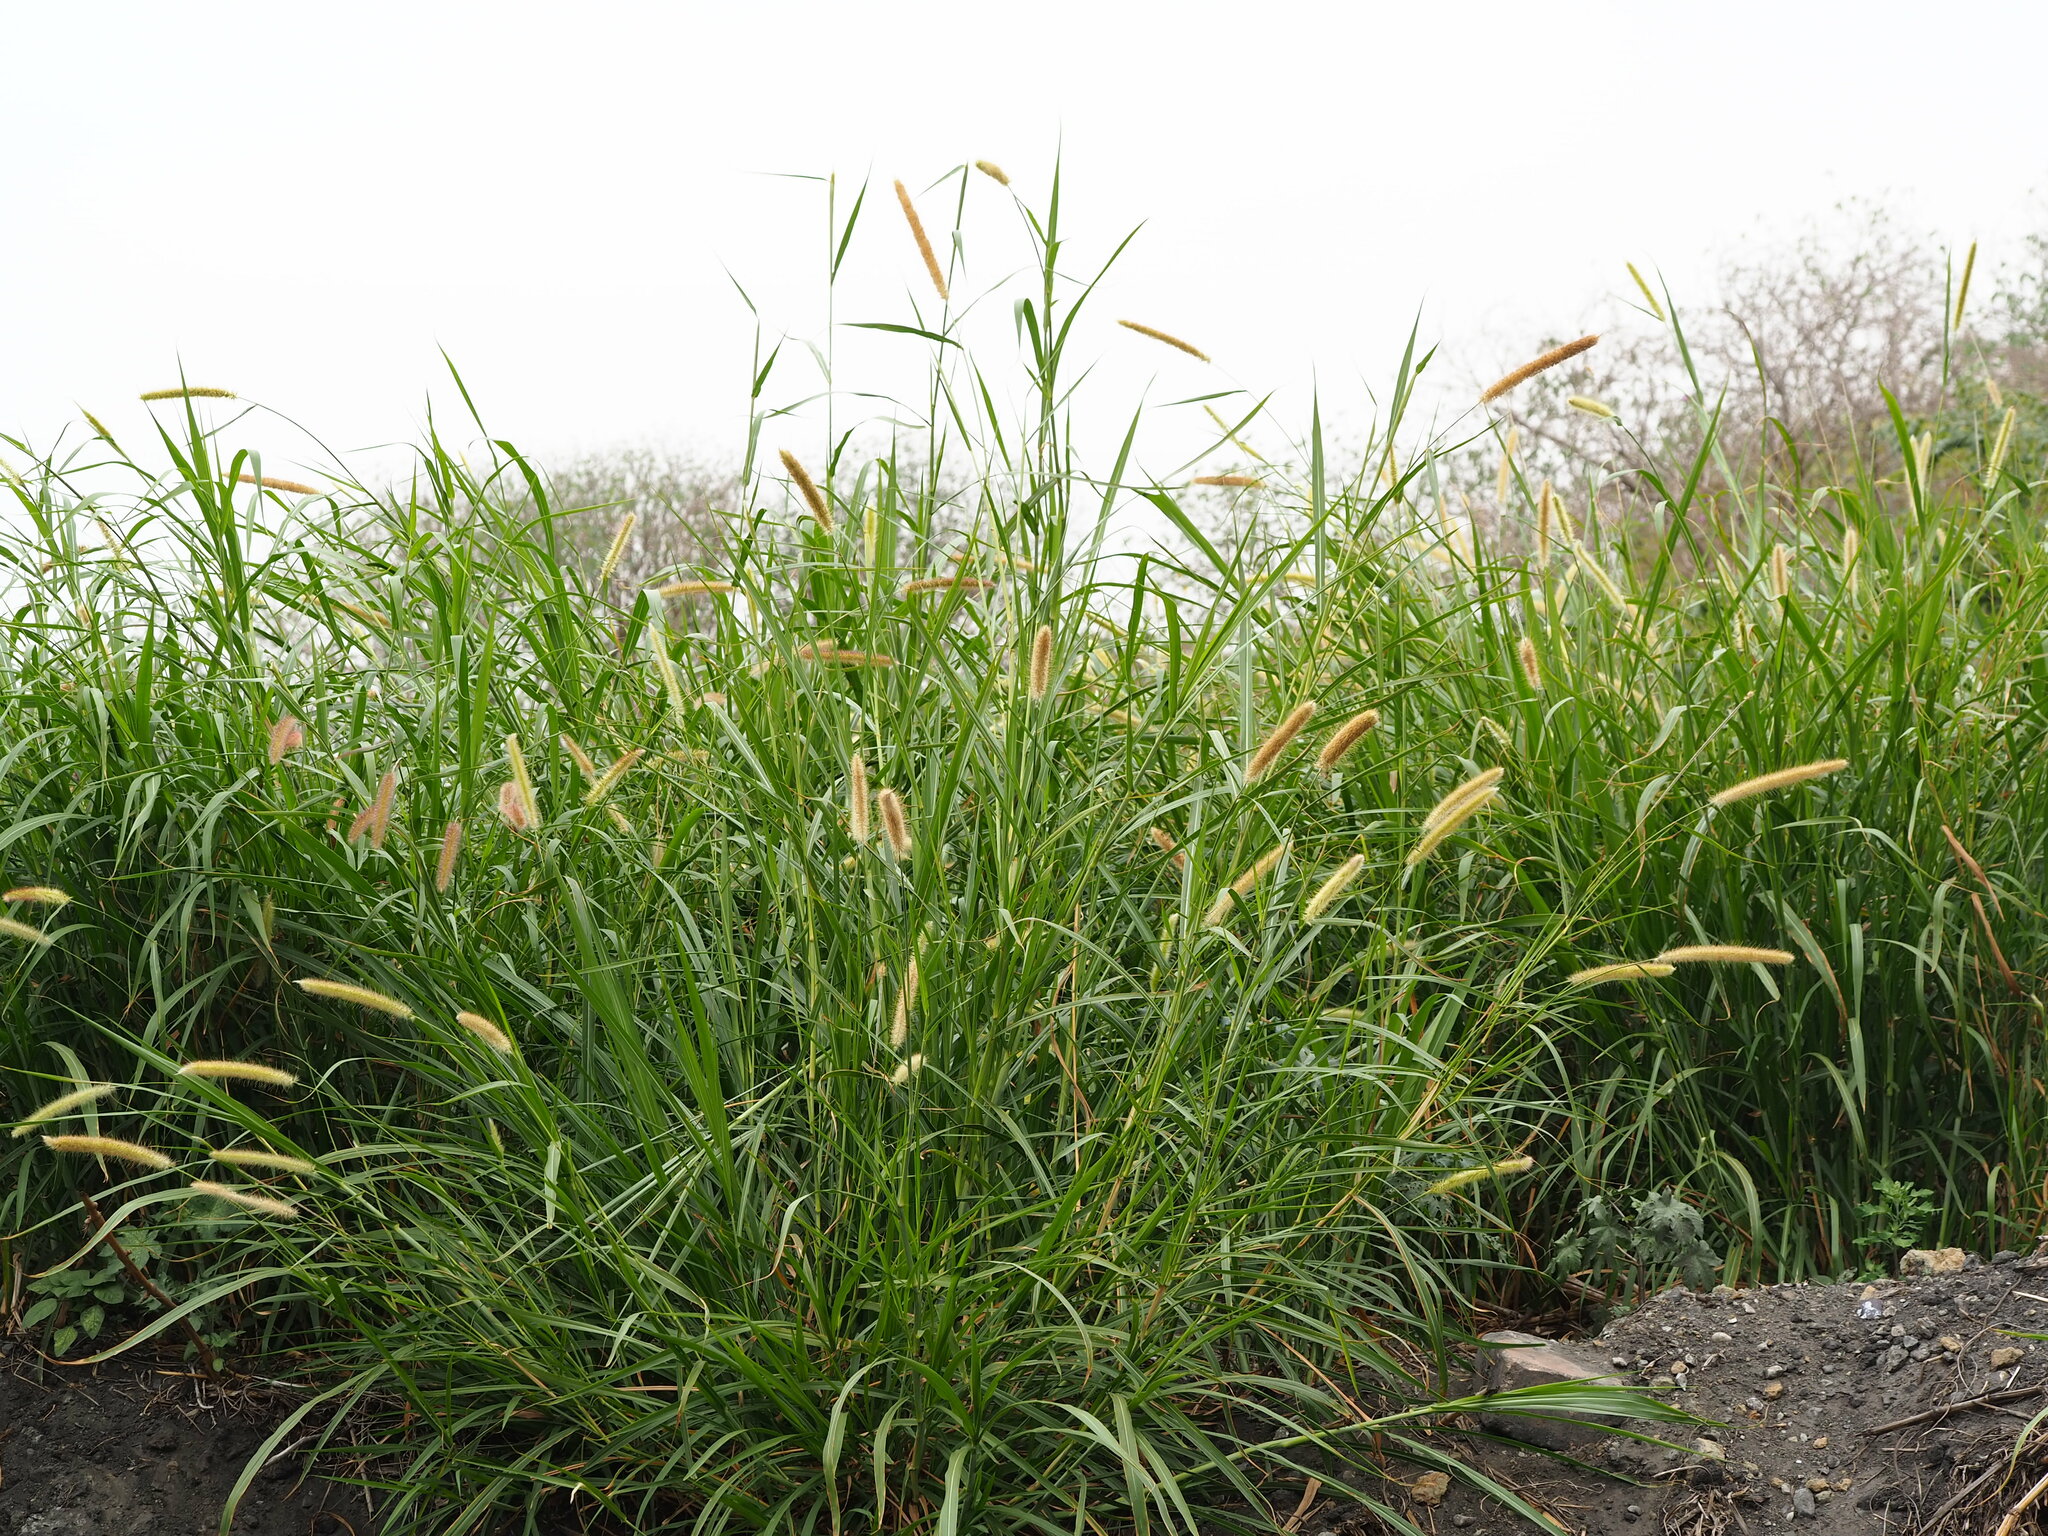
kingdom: Plantae
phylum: Tracheophyta
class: Liliopsida
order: Poales
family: Poaceae
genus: Cenchrus
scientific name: Cenchrus purpureus
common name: Elephant grass
